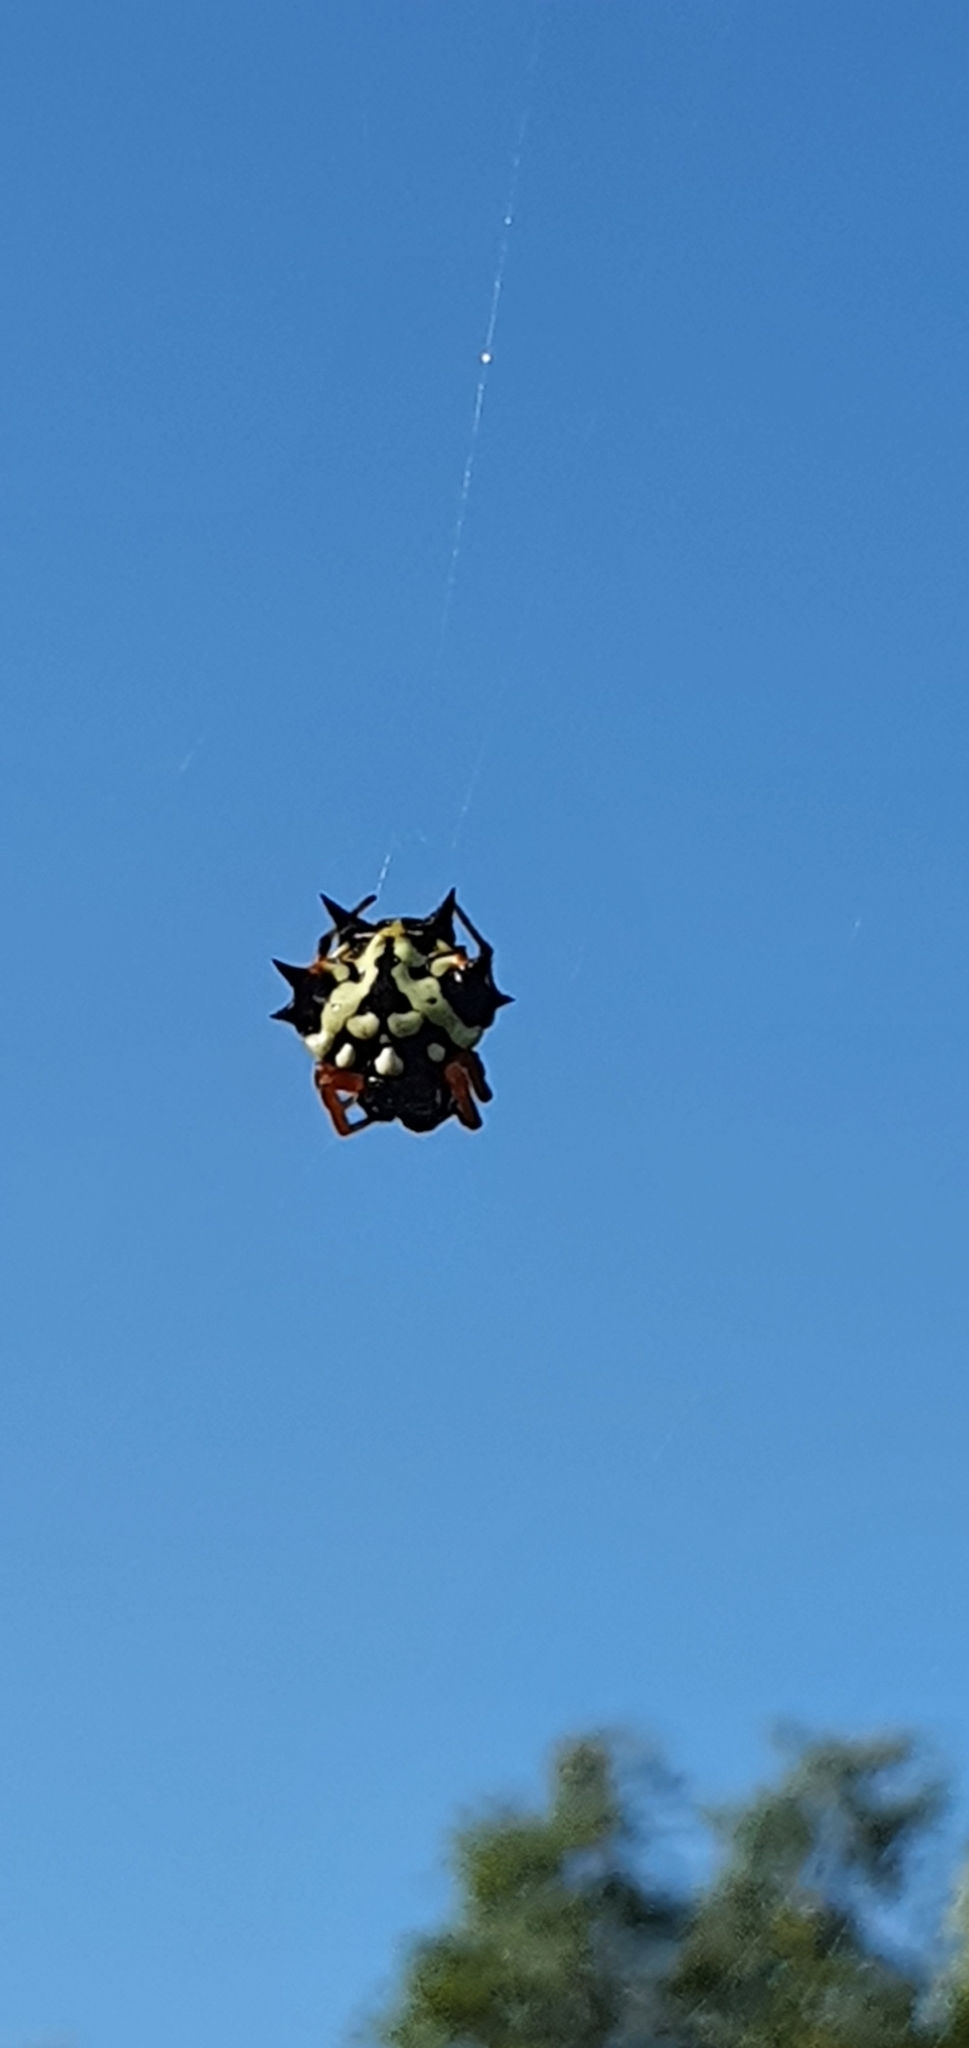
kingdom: Animalia
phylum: Arthropoda
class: Arachnida
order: Araneae
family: Araneidae
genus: Austracantha
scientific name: Austracantha minax
